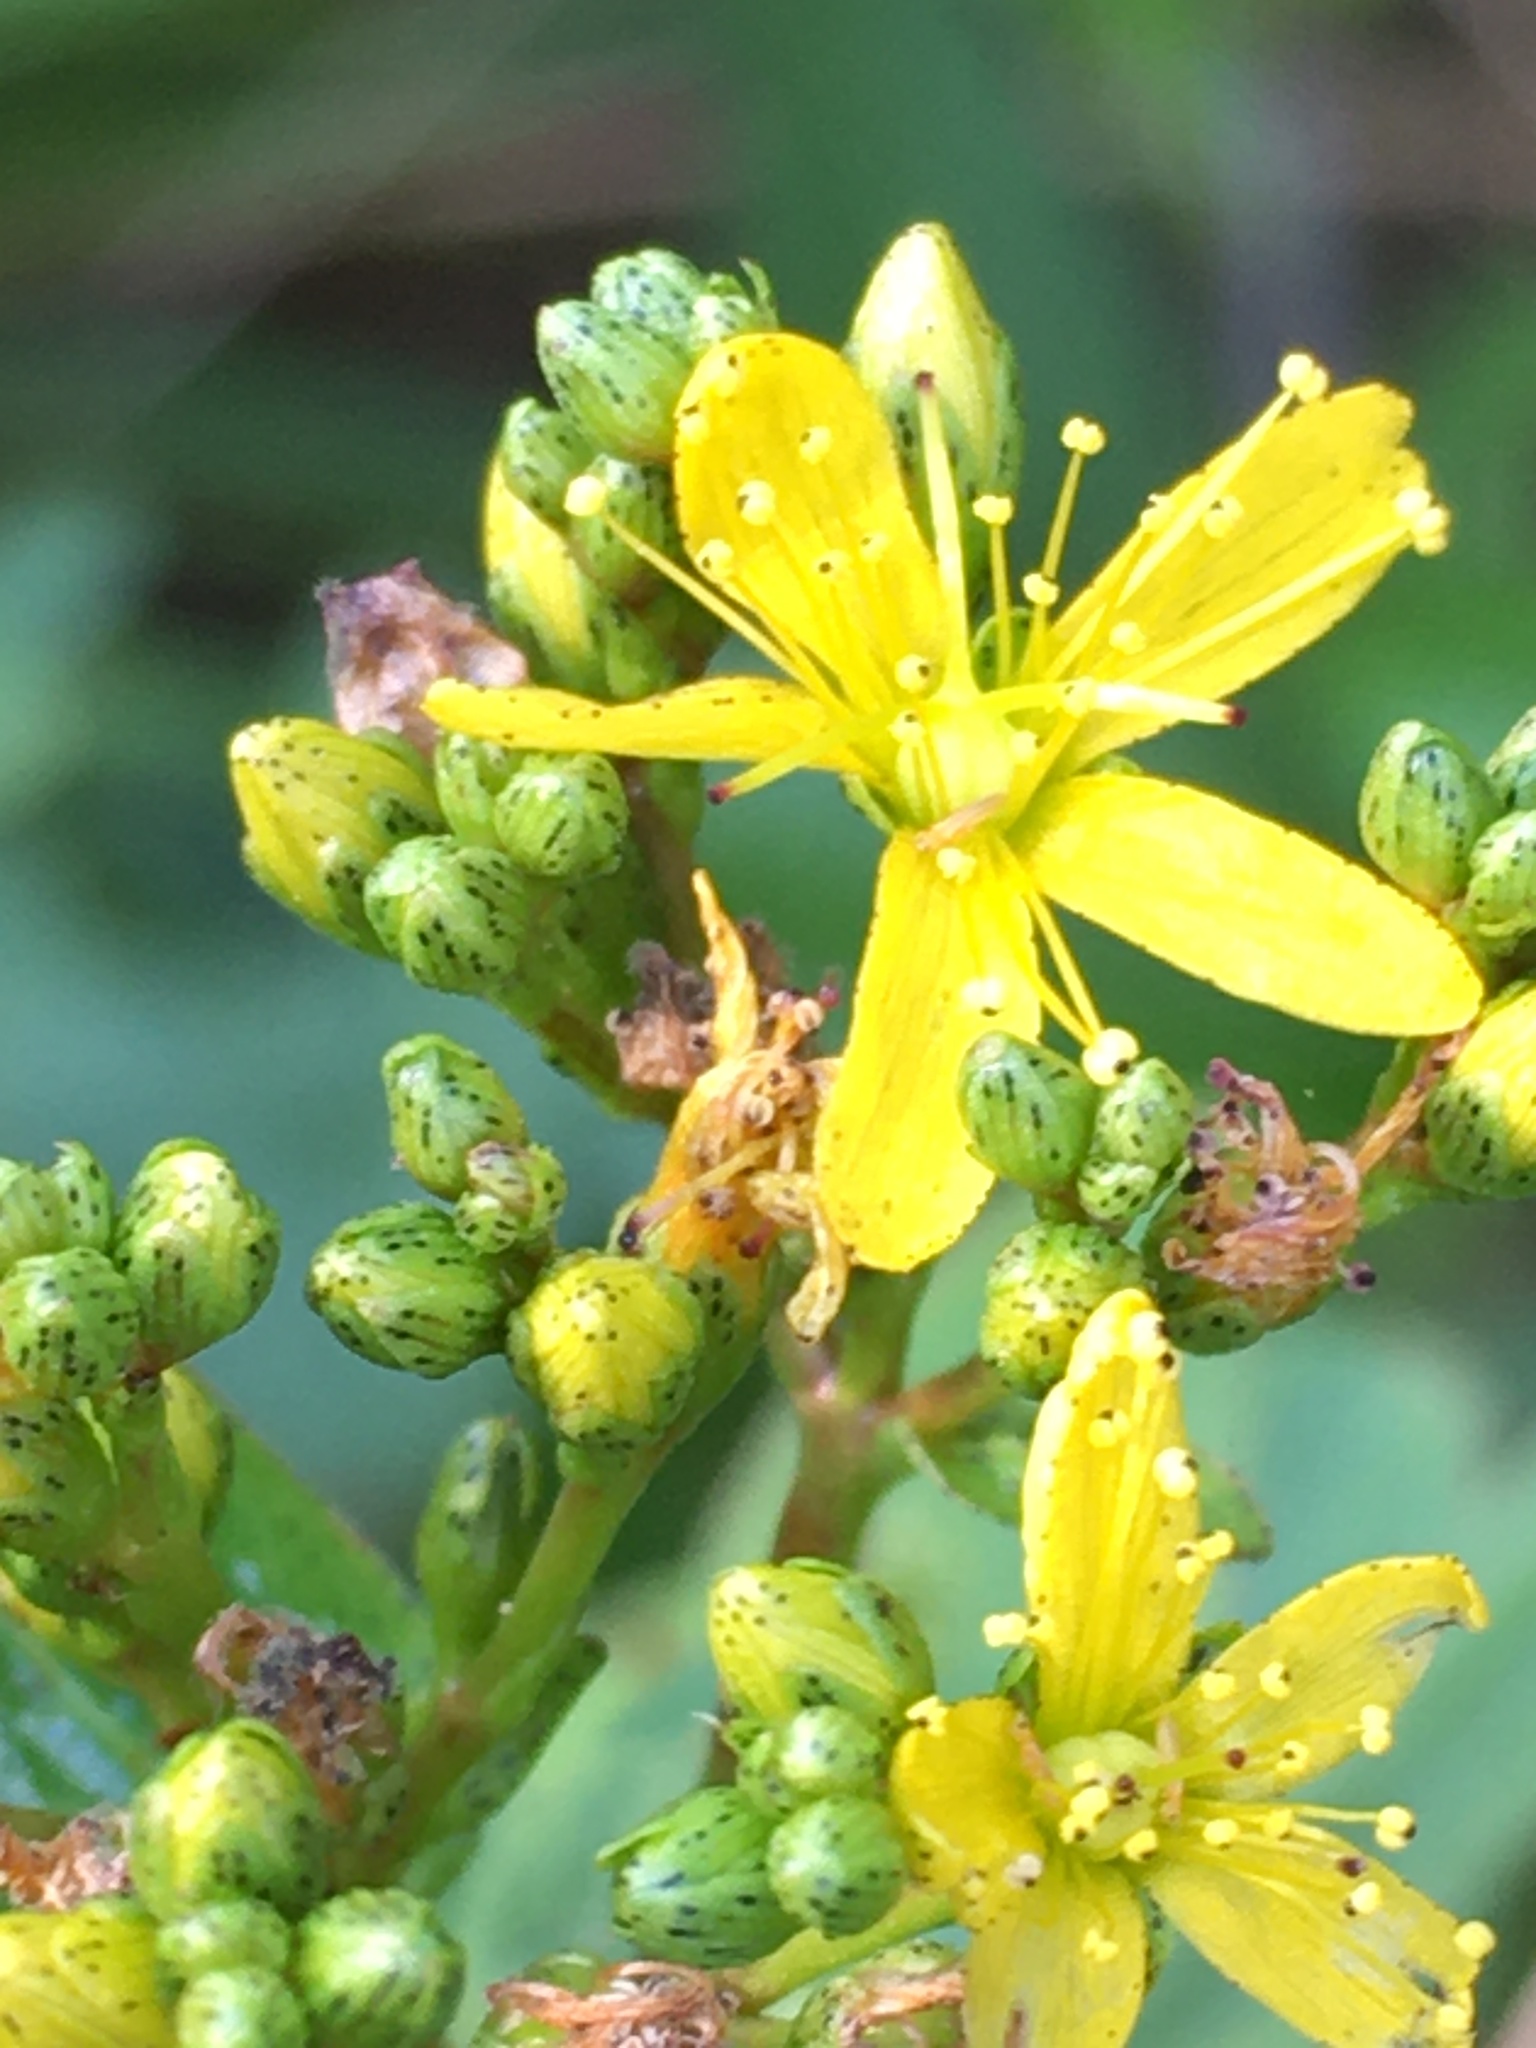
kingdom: Plantae
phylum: Tracheophyta
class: Magnoliopsida
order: Malpighiales
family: Hypericaceae
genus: Hypericum
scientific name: Hypericum punctatum
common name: Spotted st. john's-wort
